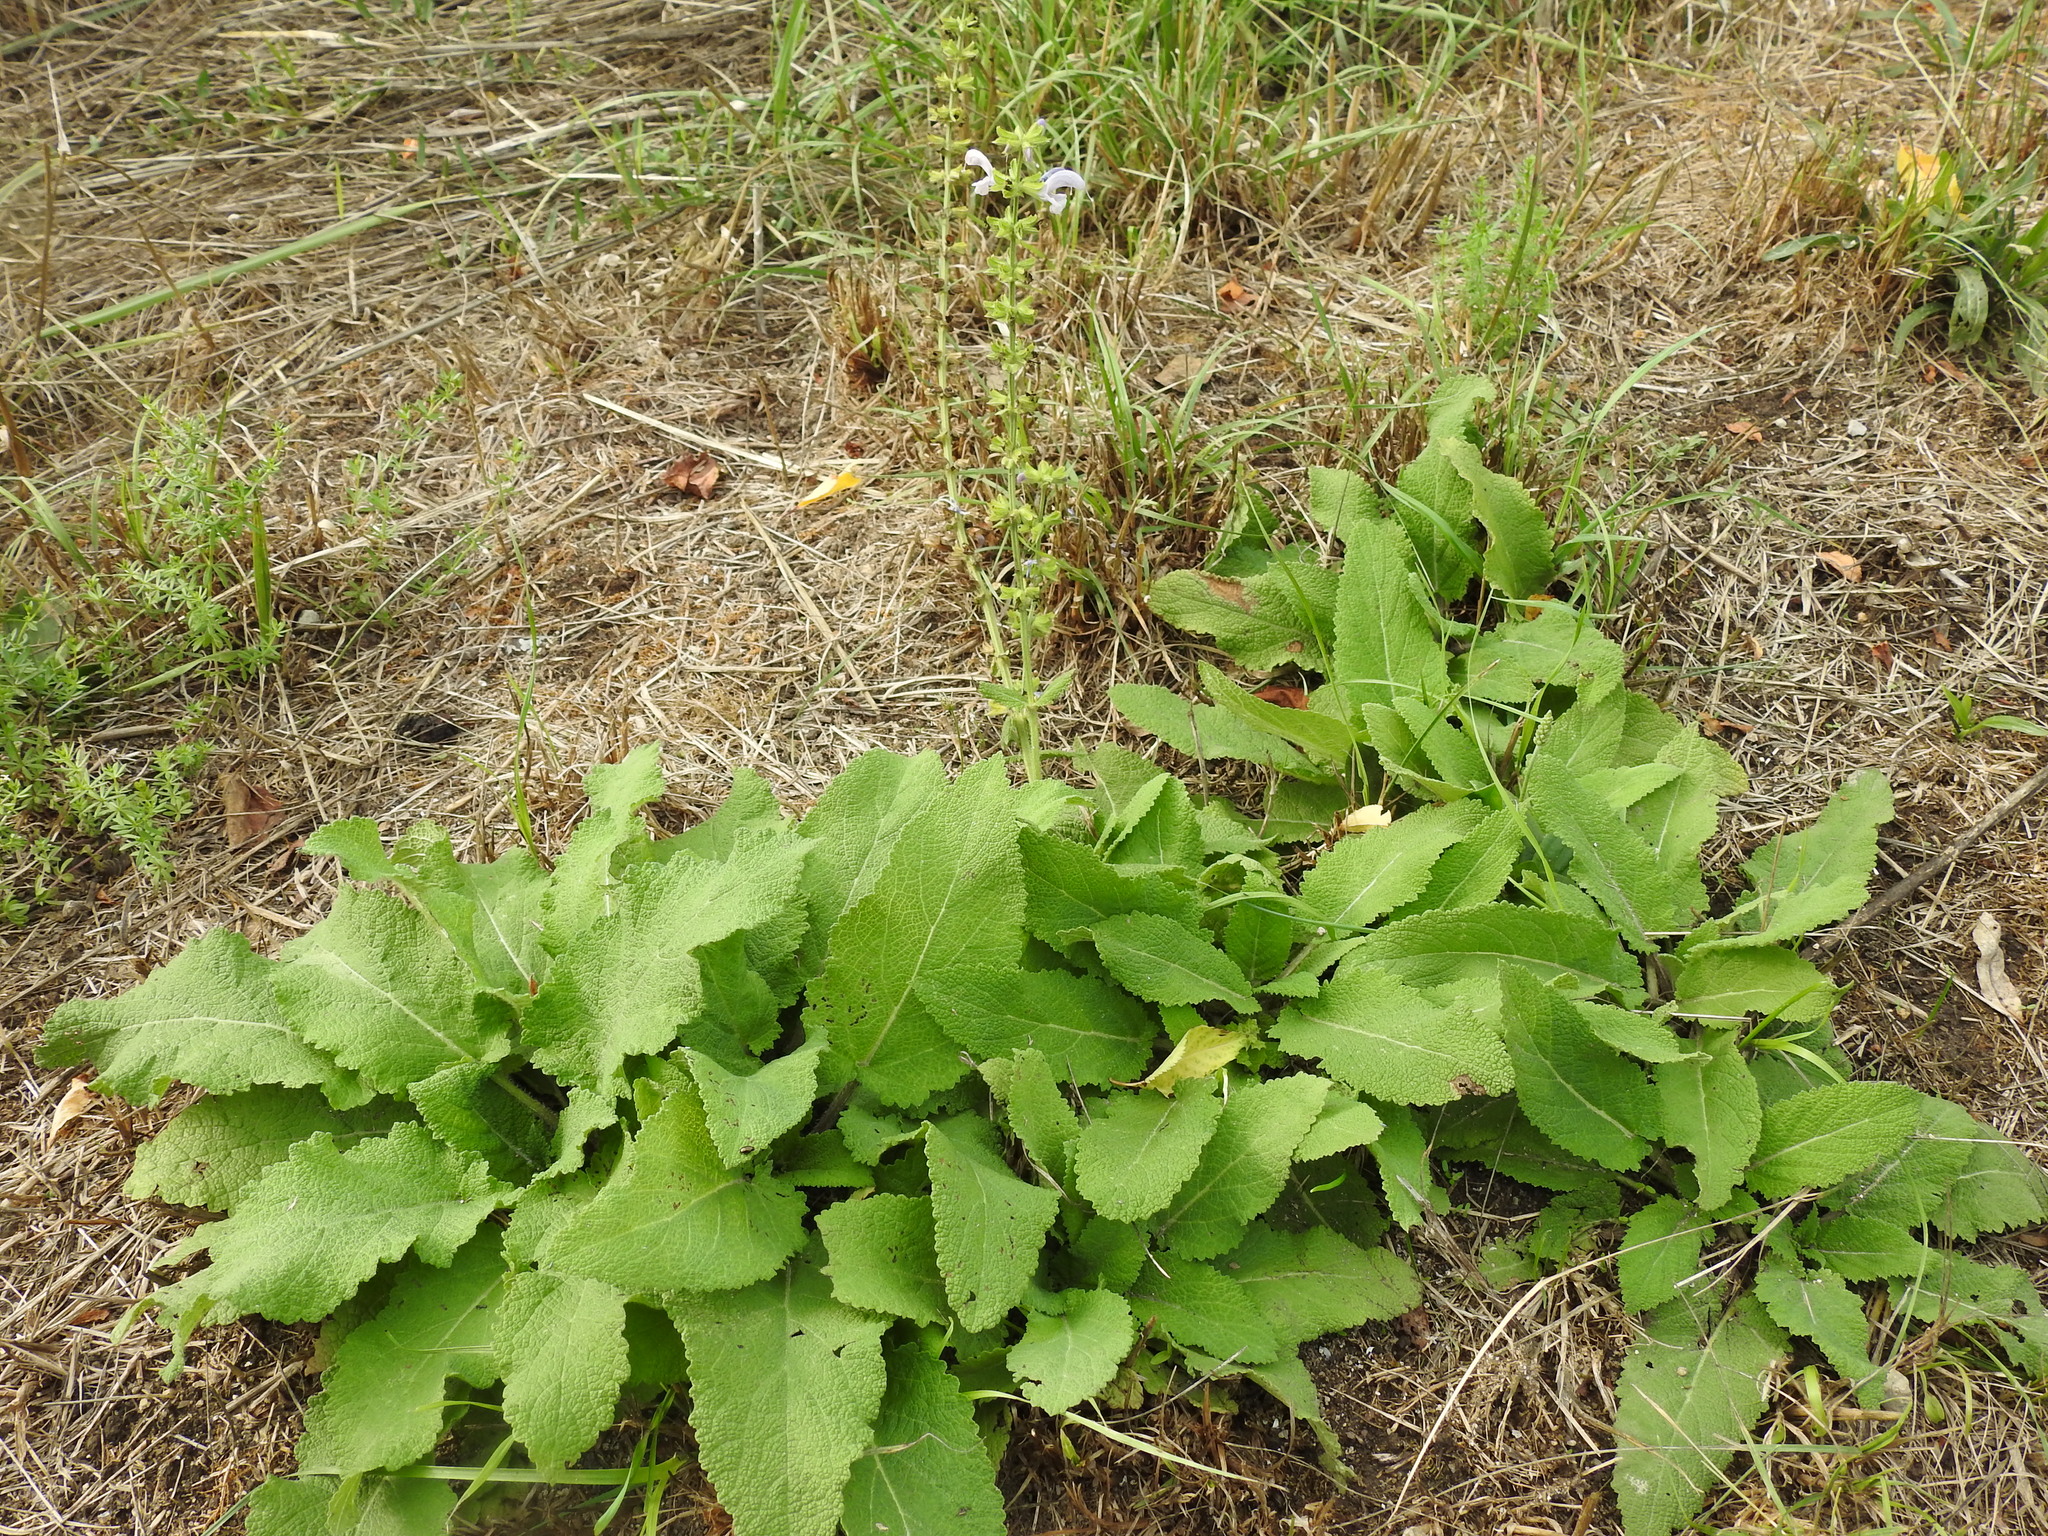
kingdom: Plantae
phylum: Tracheophyta
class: Magnoliopsida
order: Lamiales
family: Lamiaceae
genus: Salvia
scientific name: Salvia pratensis
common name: Meadow sage
